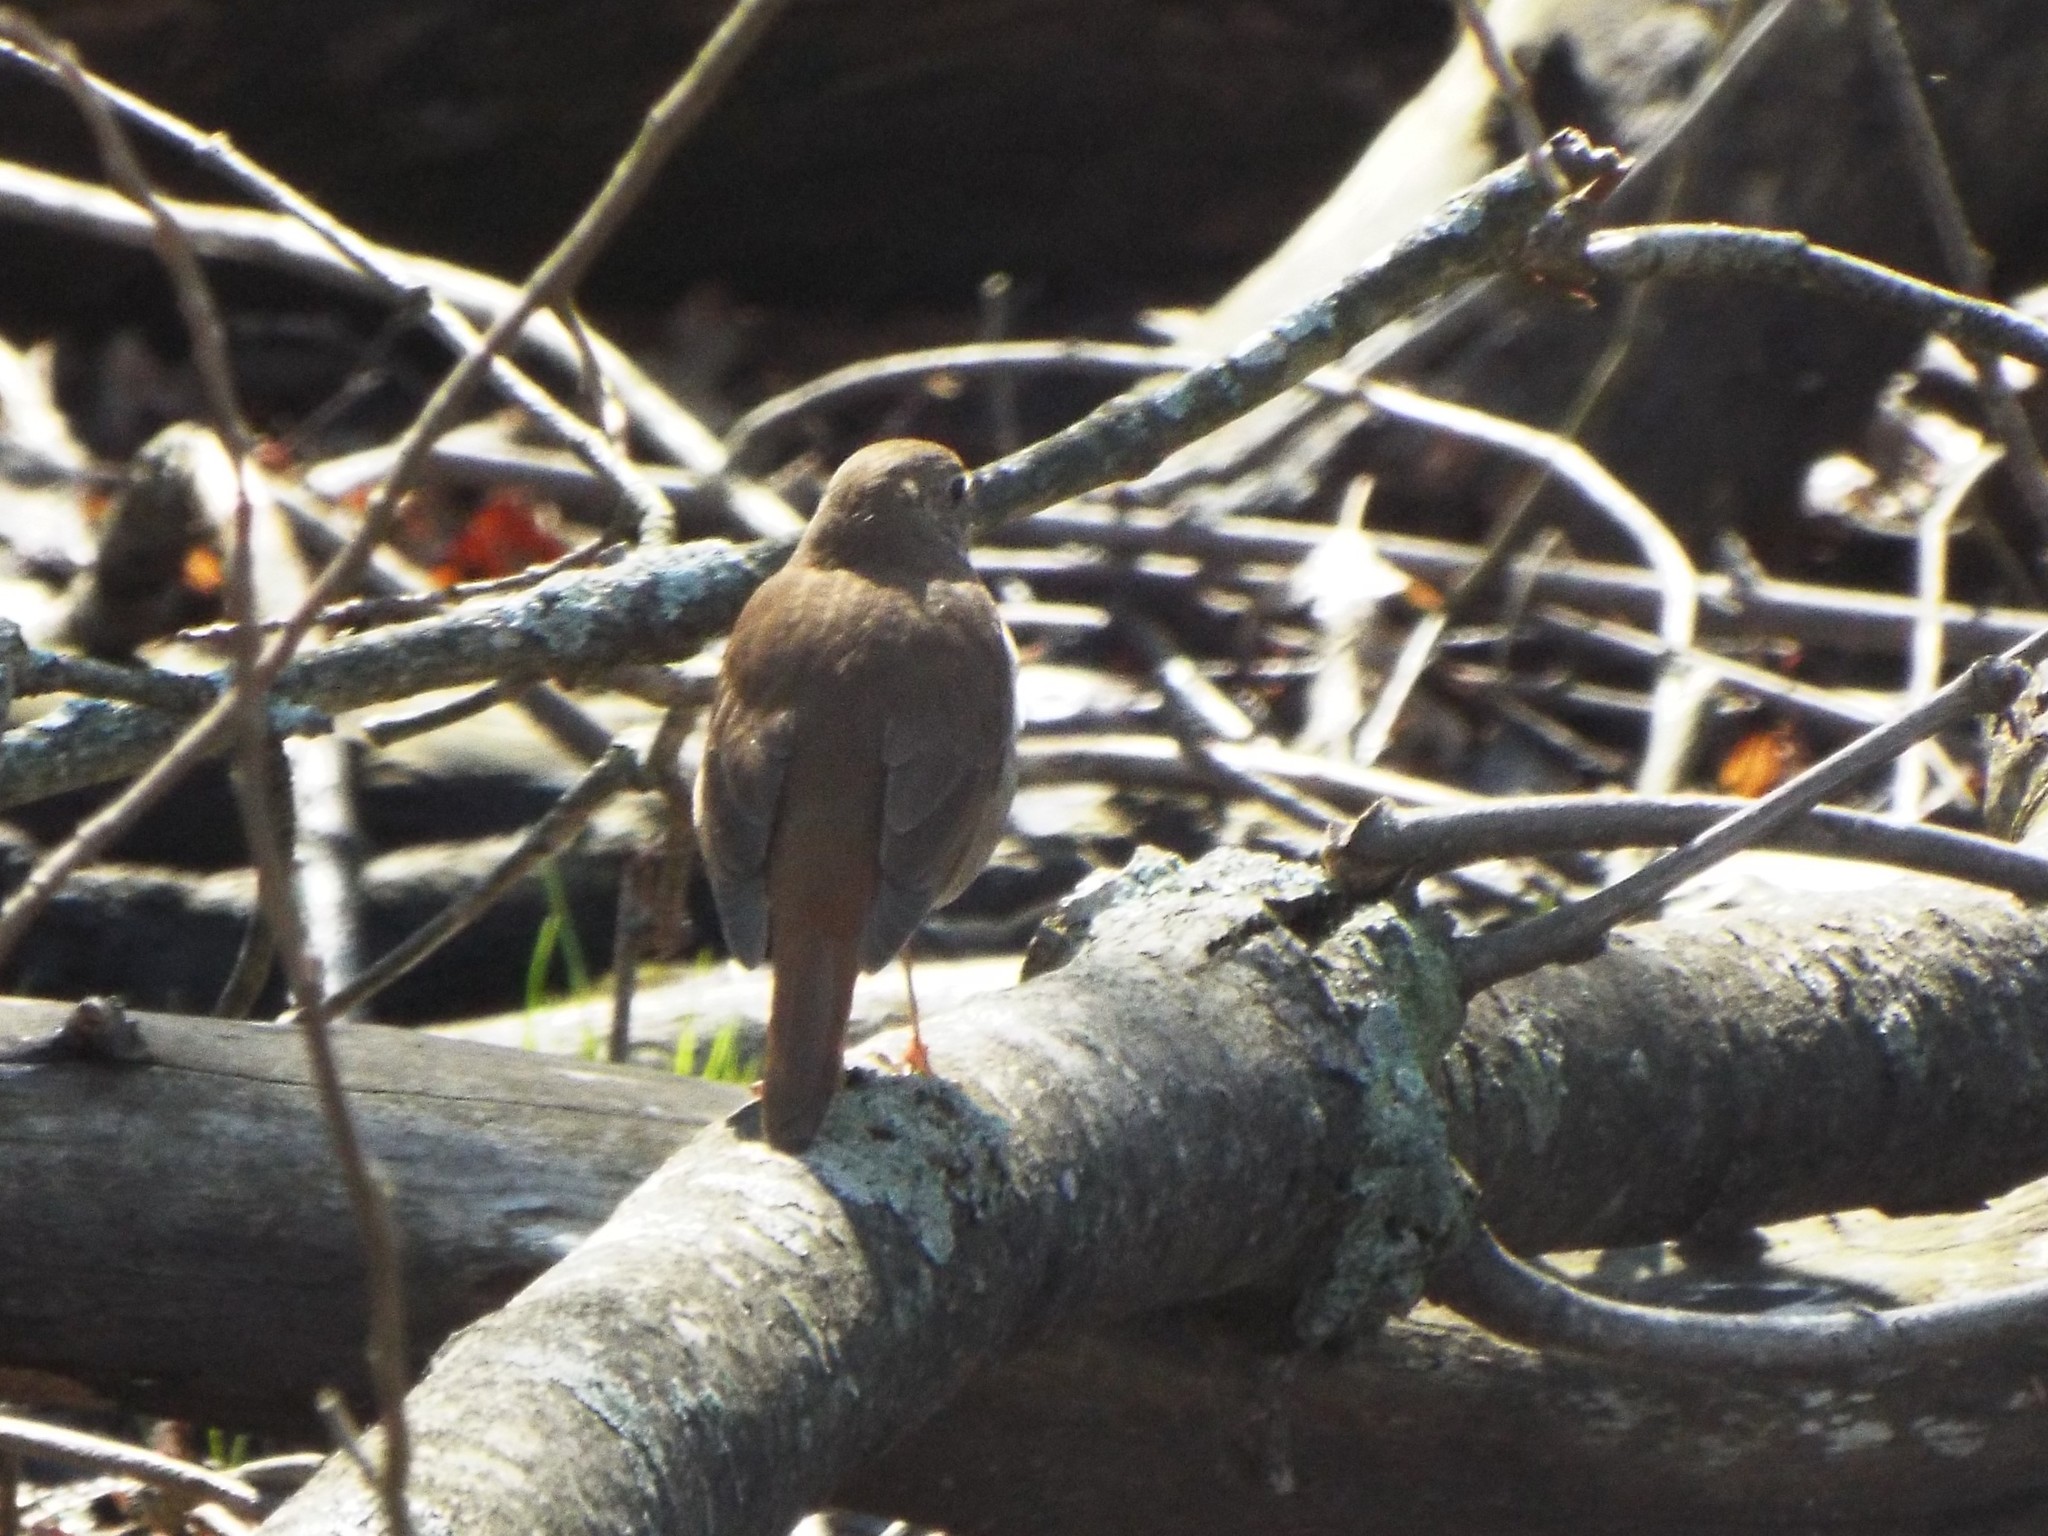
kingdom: Animalia
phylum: Chordata
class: Aves
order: Passeriformes
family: Turdidae
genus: Catharus
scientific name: Catharus guttatus
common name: Hermit thrush
